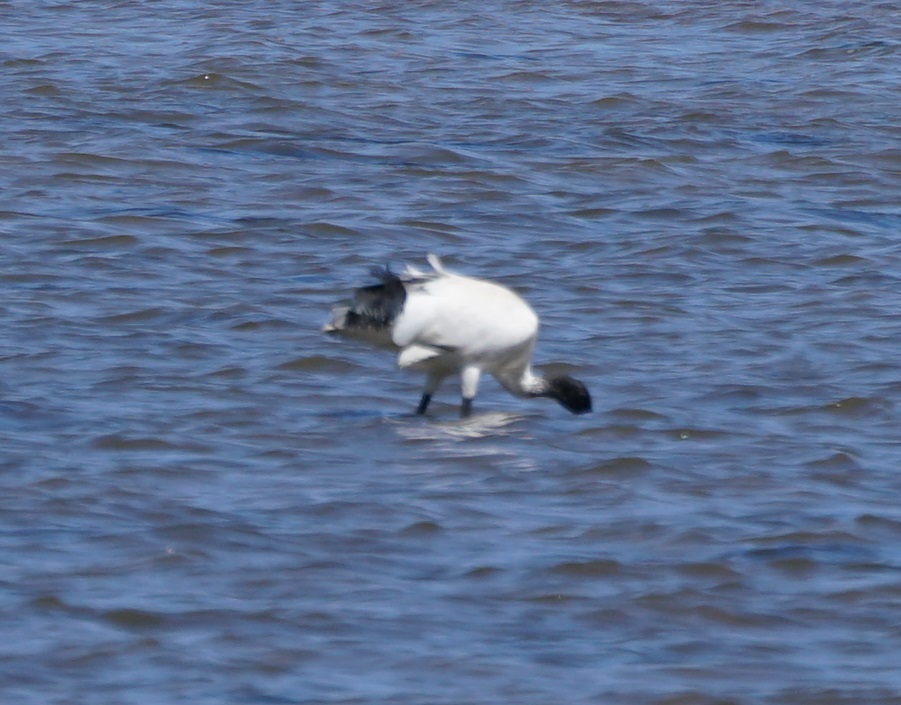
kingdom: Animalia
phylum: Chordata
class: Aves
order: Pelecaniformes
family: Threskiornithidae
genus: Threskiornis
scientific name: Threskiornis molucca
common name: Australian white ibis
